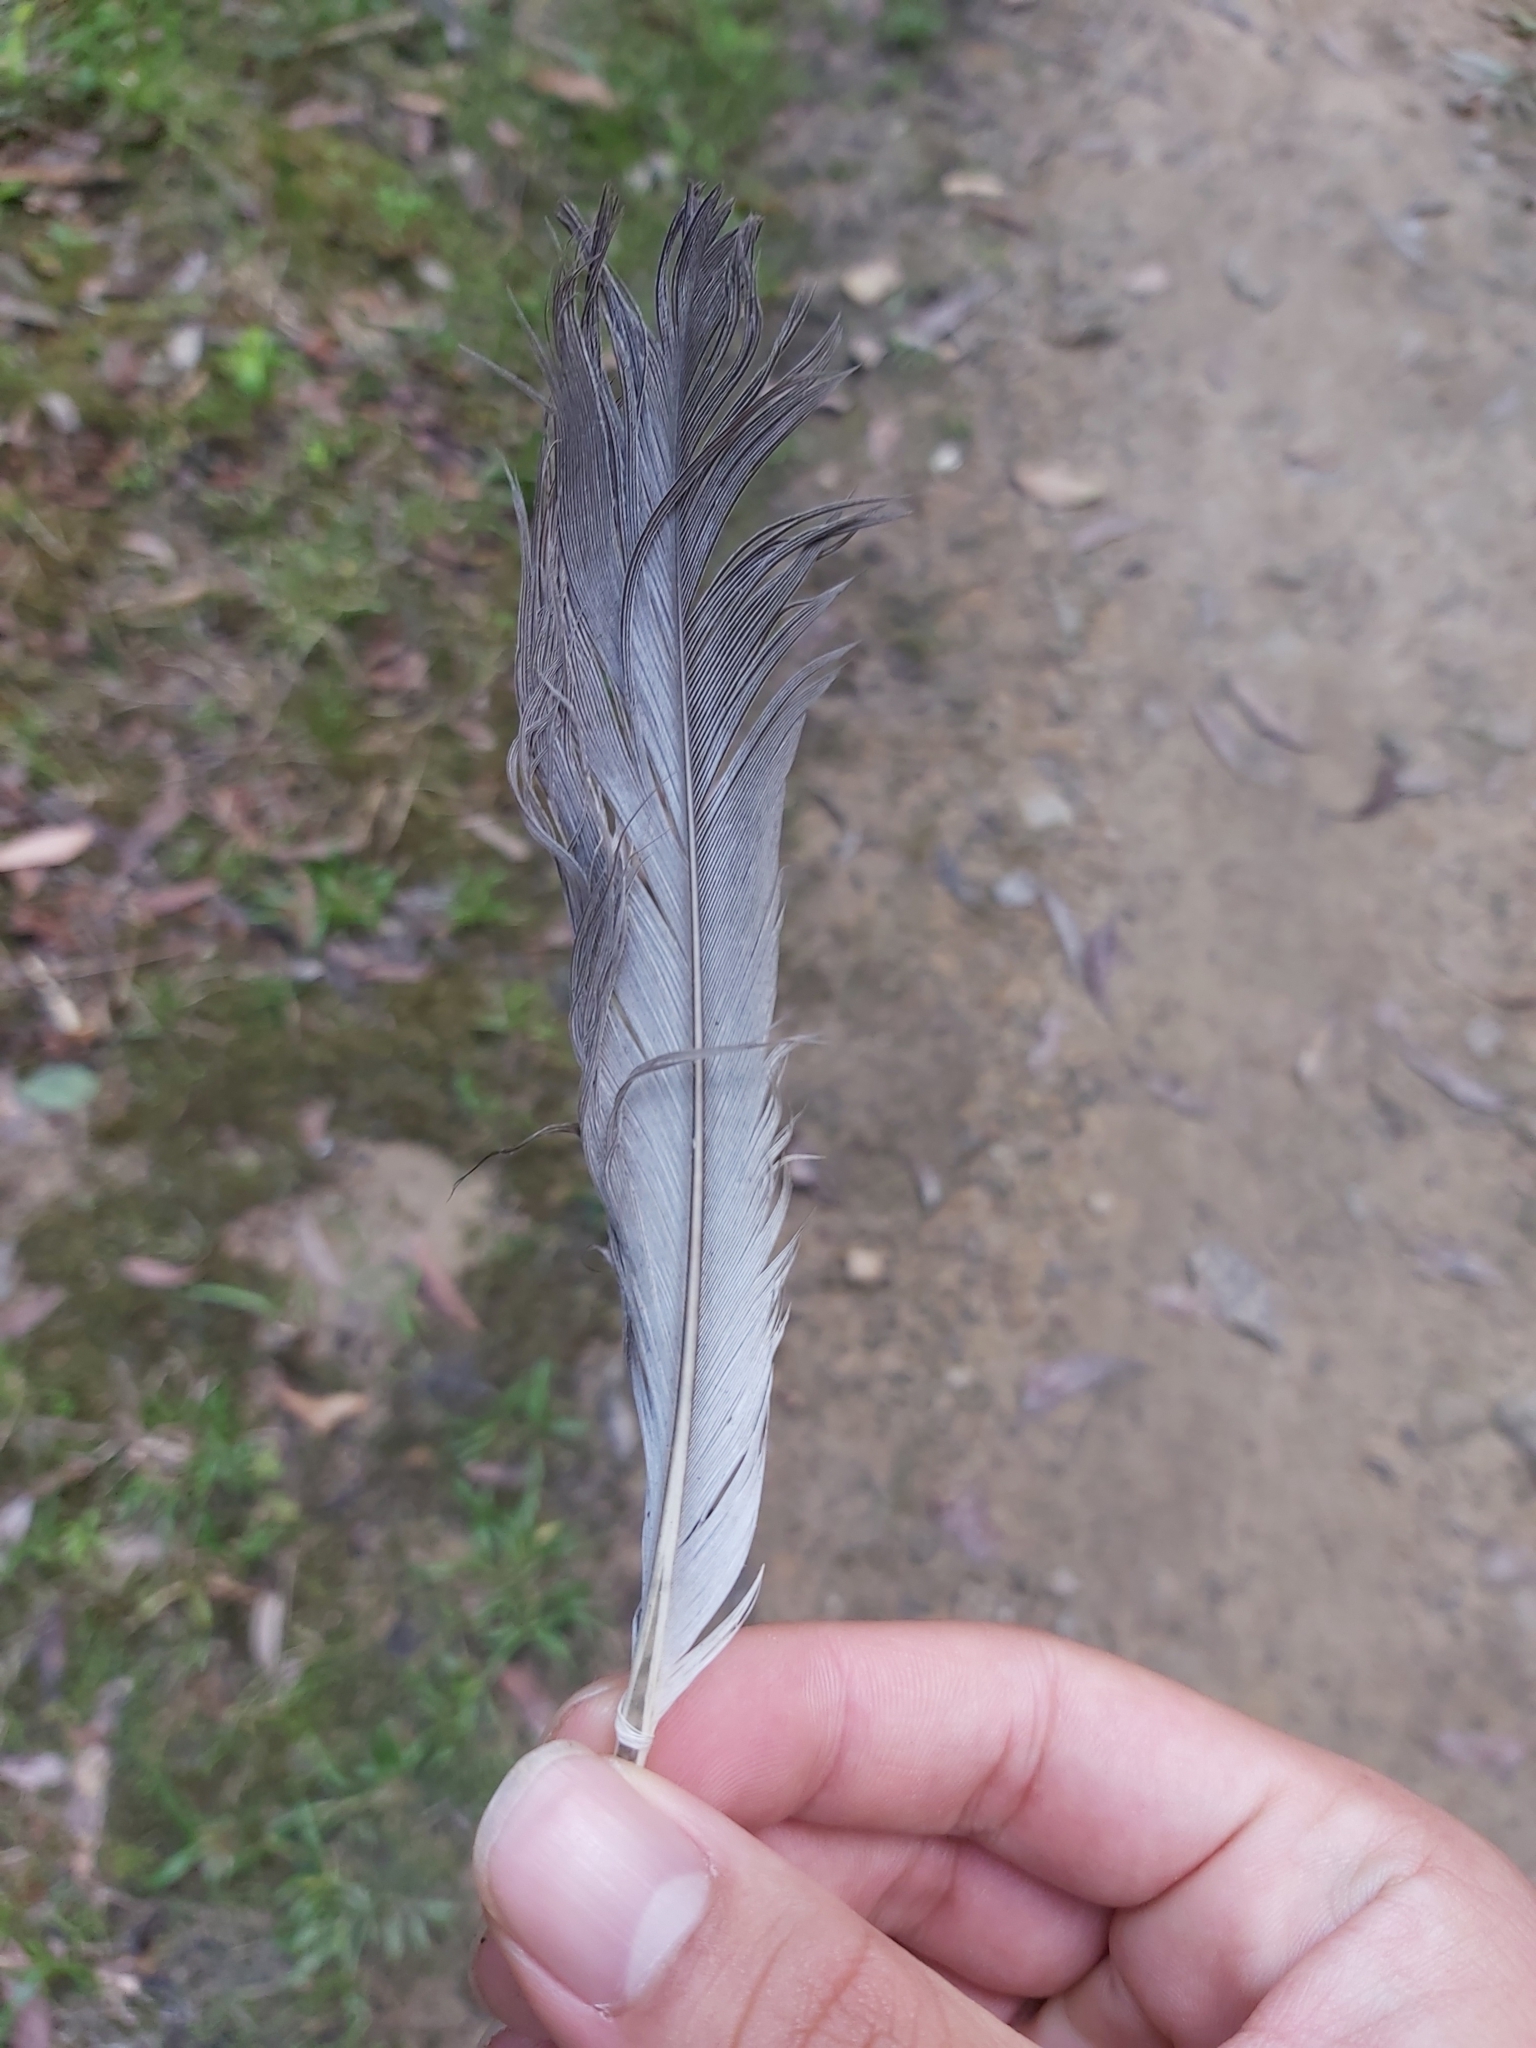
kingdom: Animalia
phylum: Chordata
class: Aves
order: Psittaciformes
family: Psittacidae
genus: Eolophus
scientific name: Eolophus roseicapilla
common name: Galah
